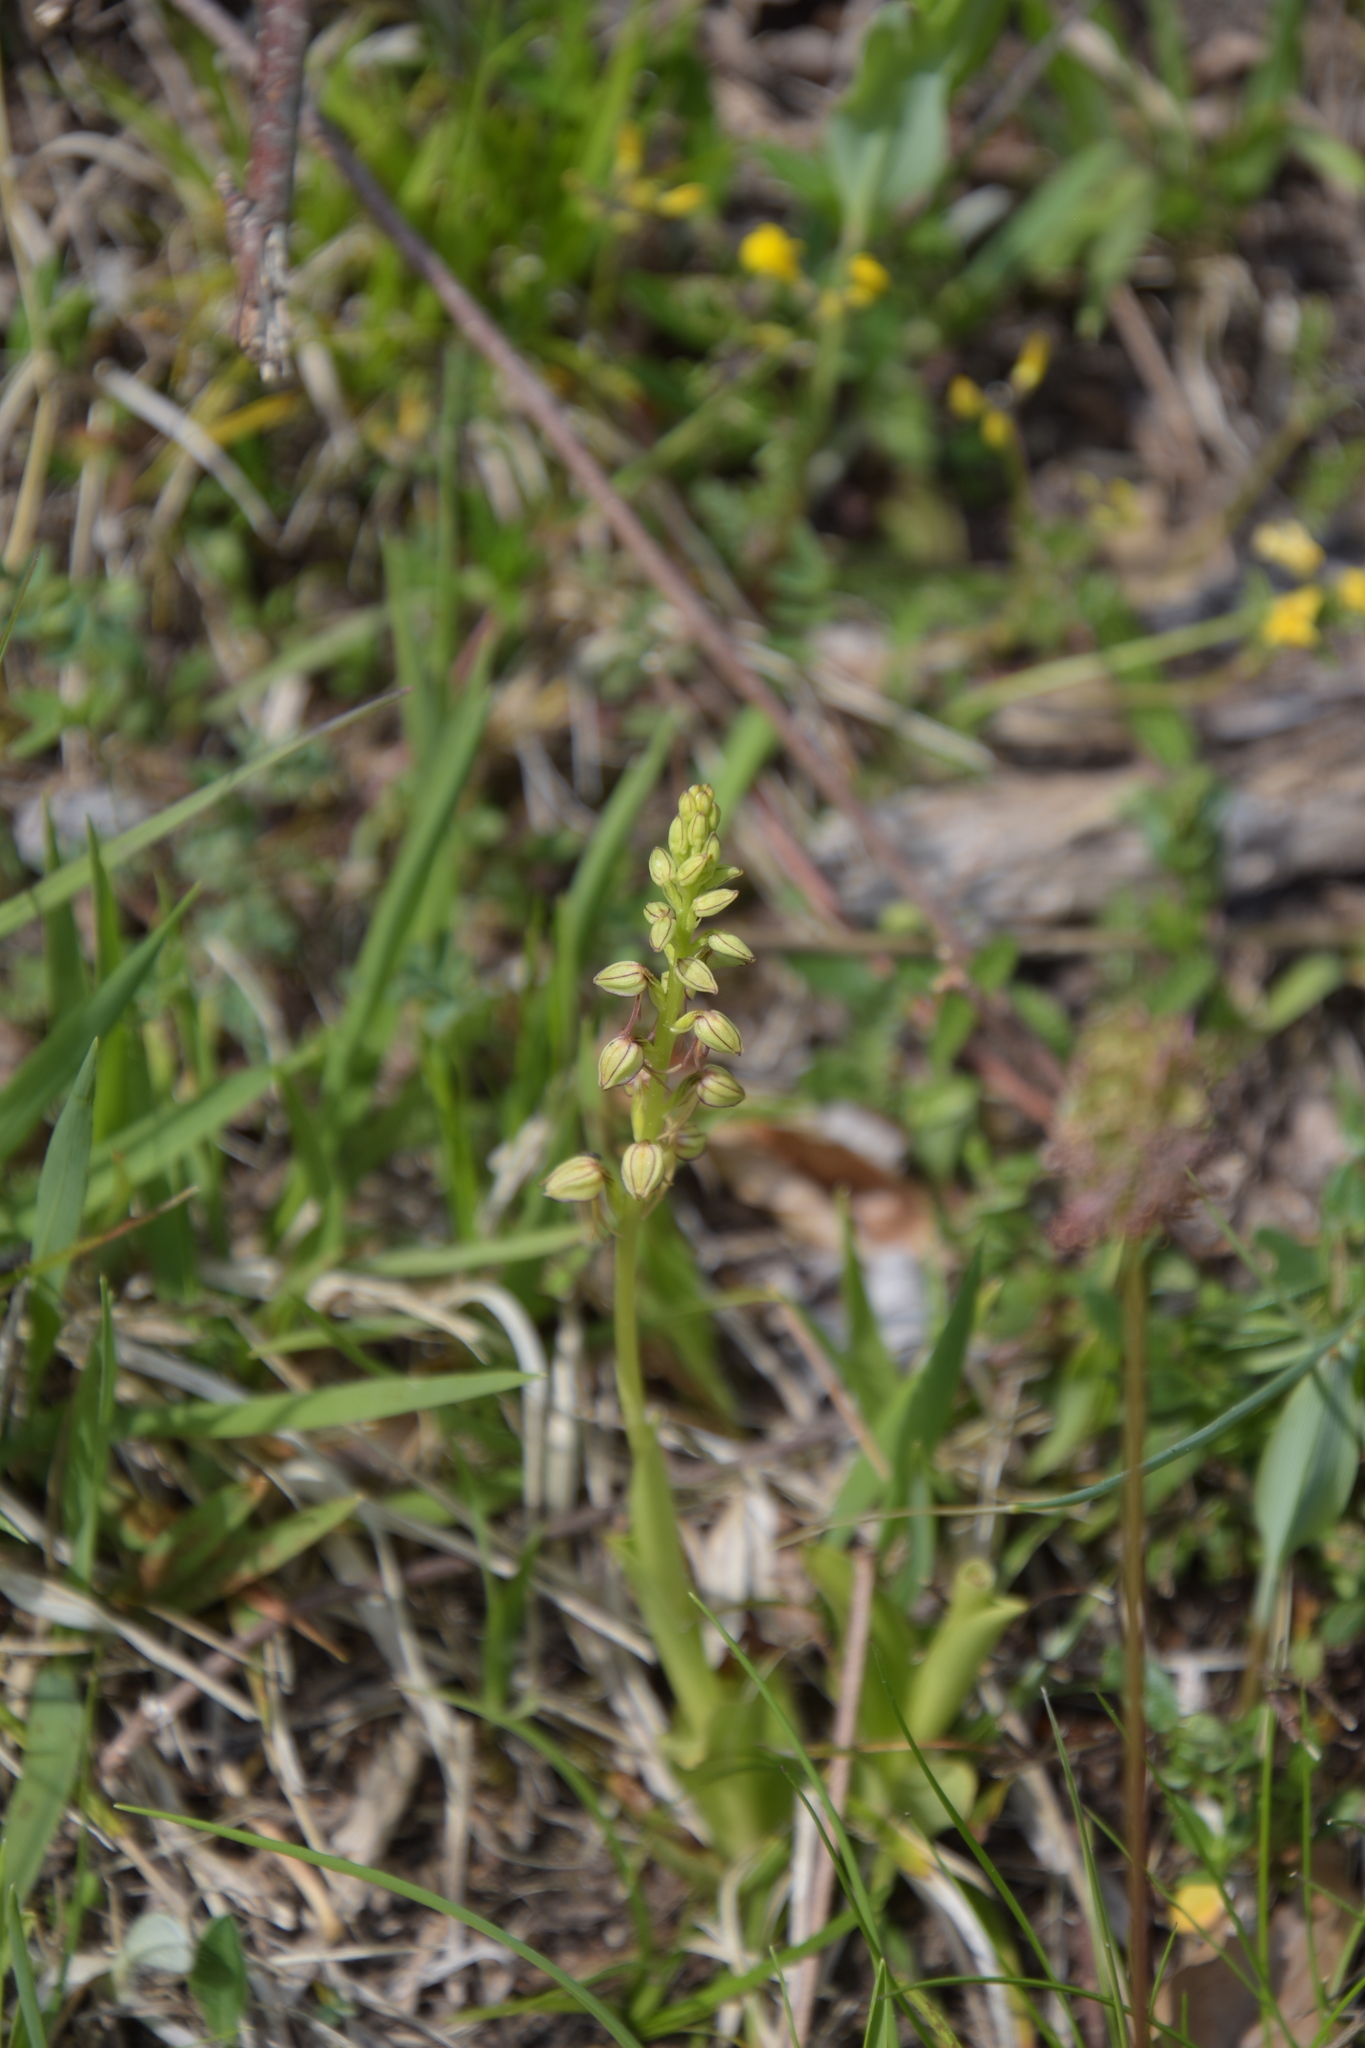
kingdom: Plantae
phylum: Tracheophyta
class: Liliopsida
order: Asparagales
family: Orchidaceae
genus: Orchis
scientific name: Orchis anthropophora
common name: Man orchid
